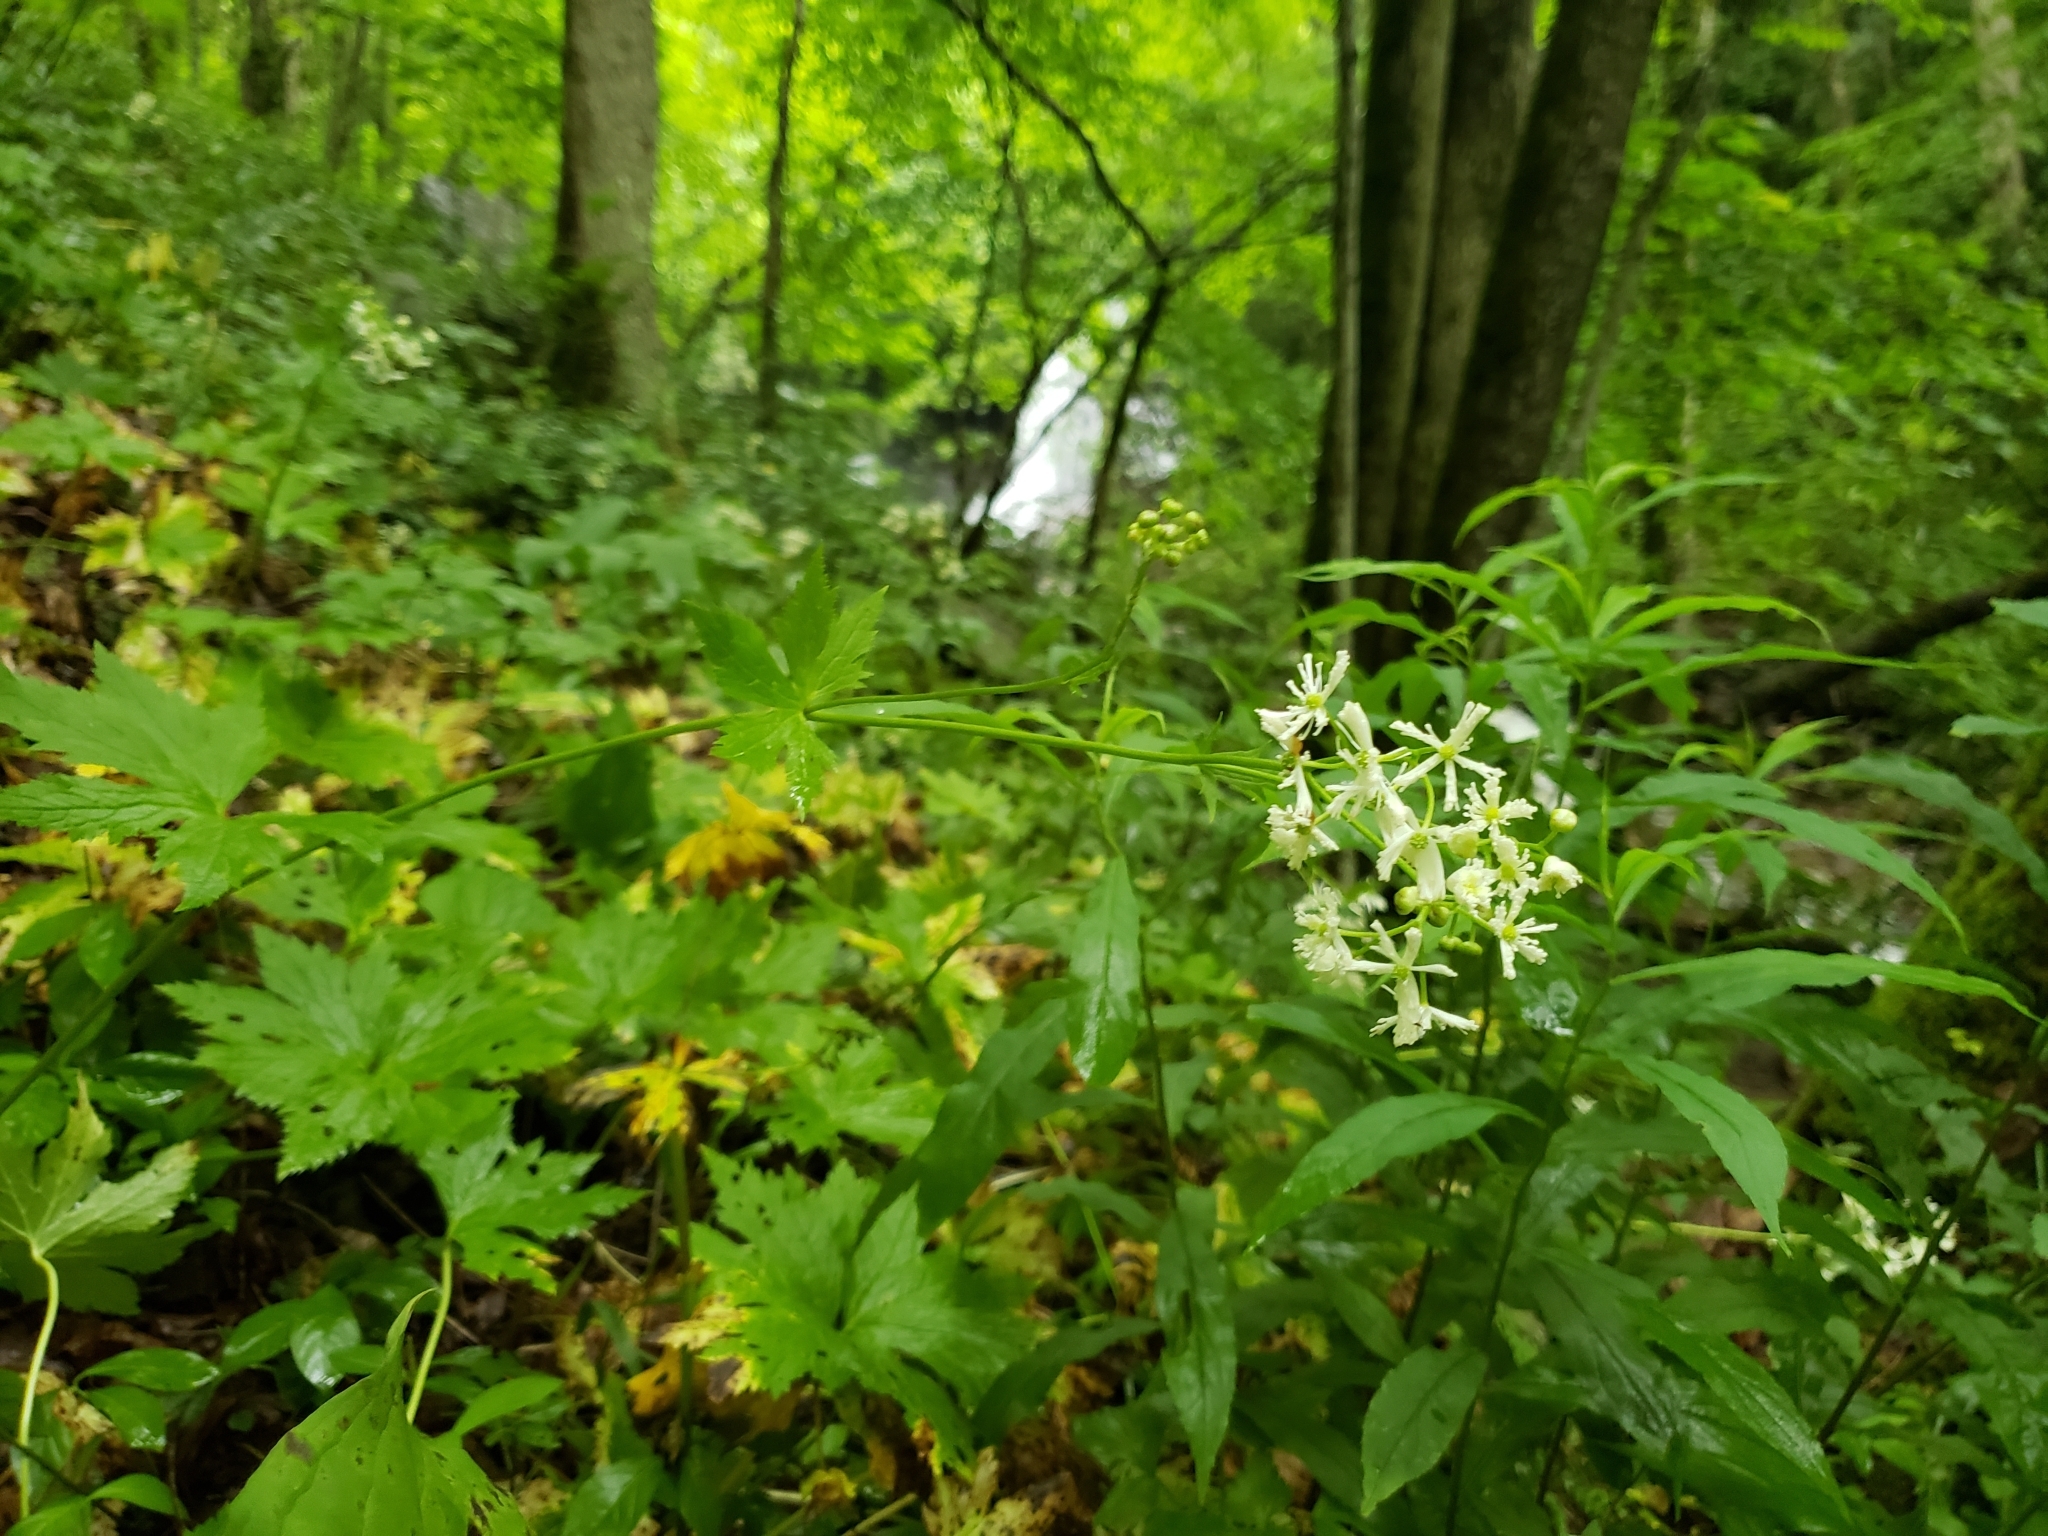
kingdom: Plantae
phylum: Tracheophyta
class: Magnoliopsida
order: Ranunculales
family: Ranunculaceae
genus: Trautvetteria
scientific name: Trautvetteria carolinensis
